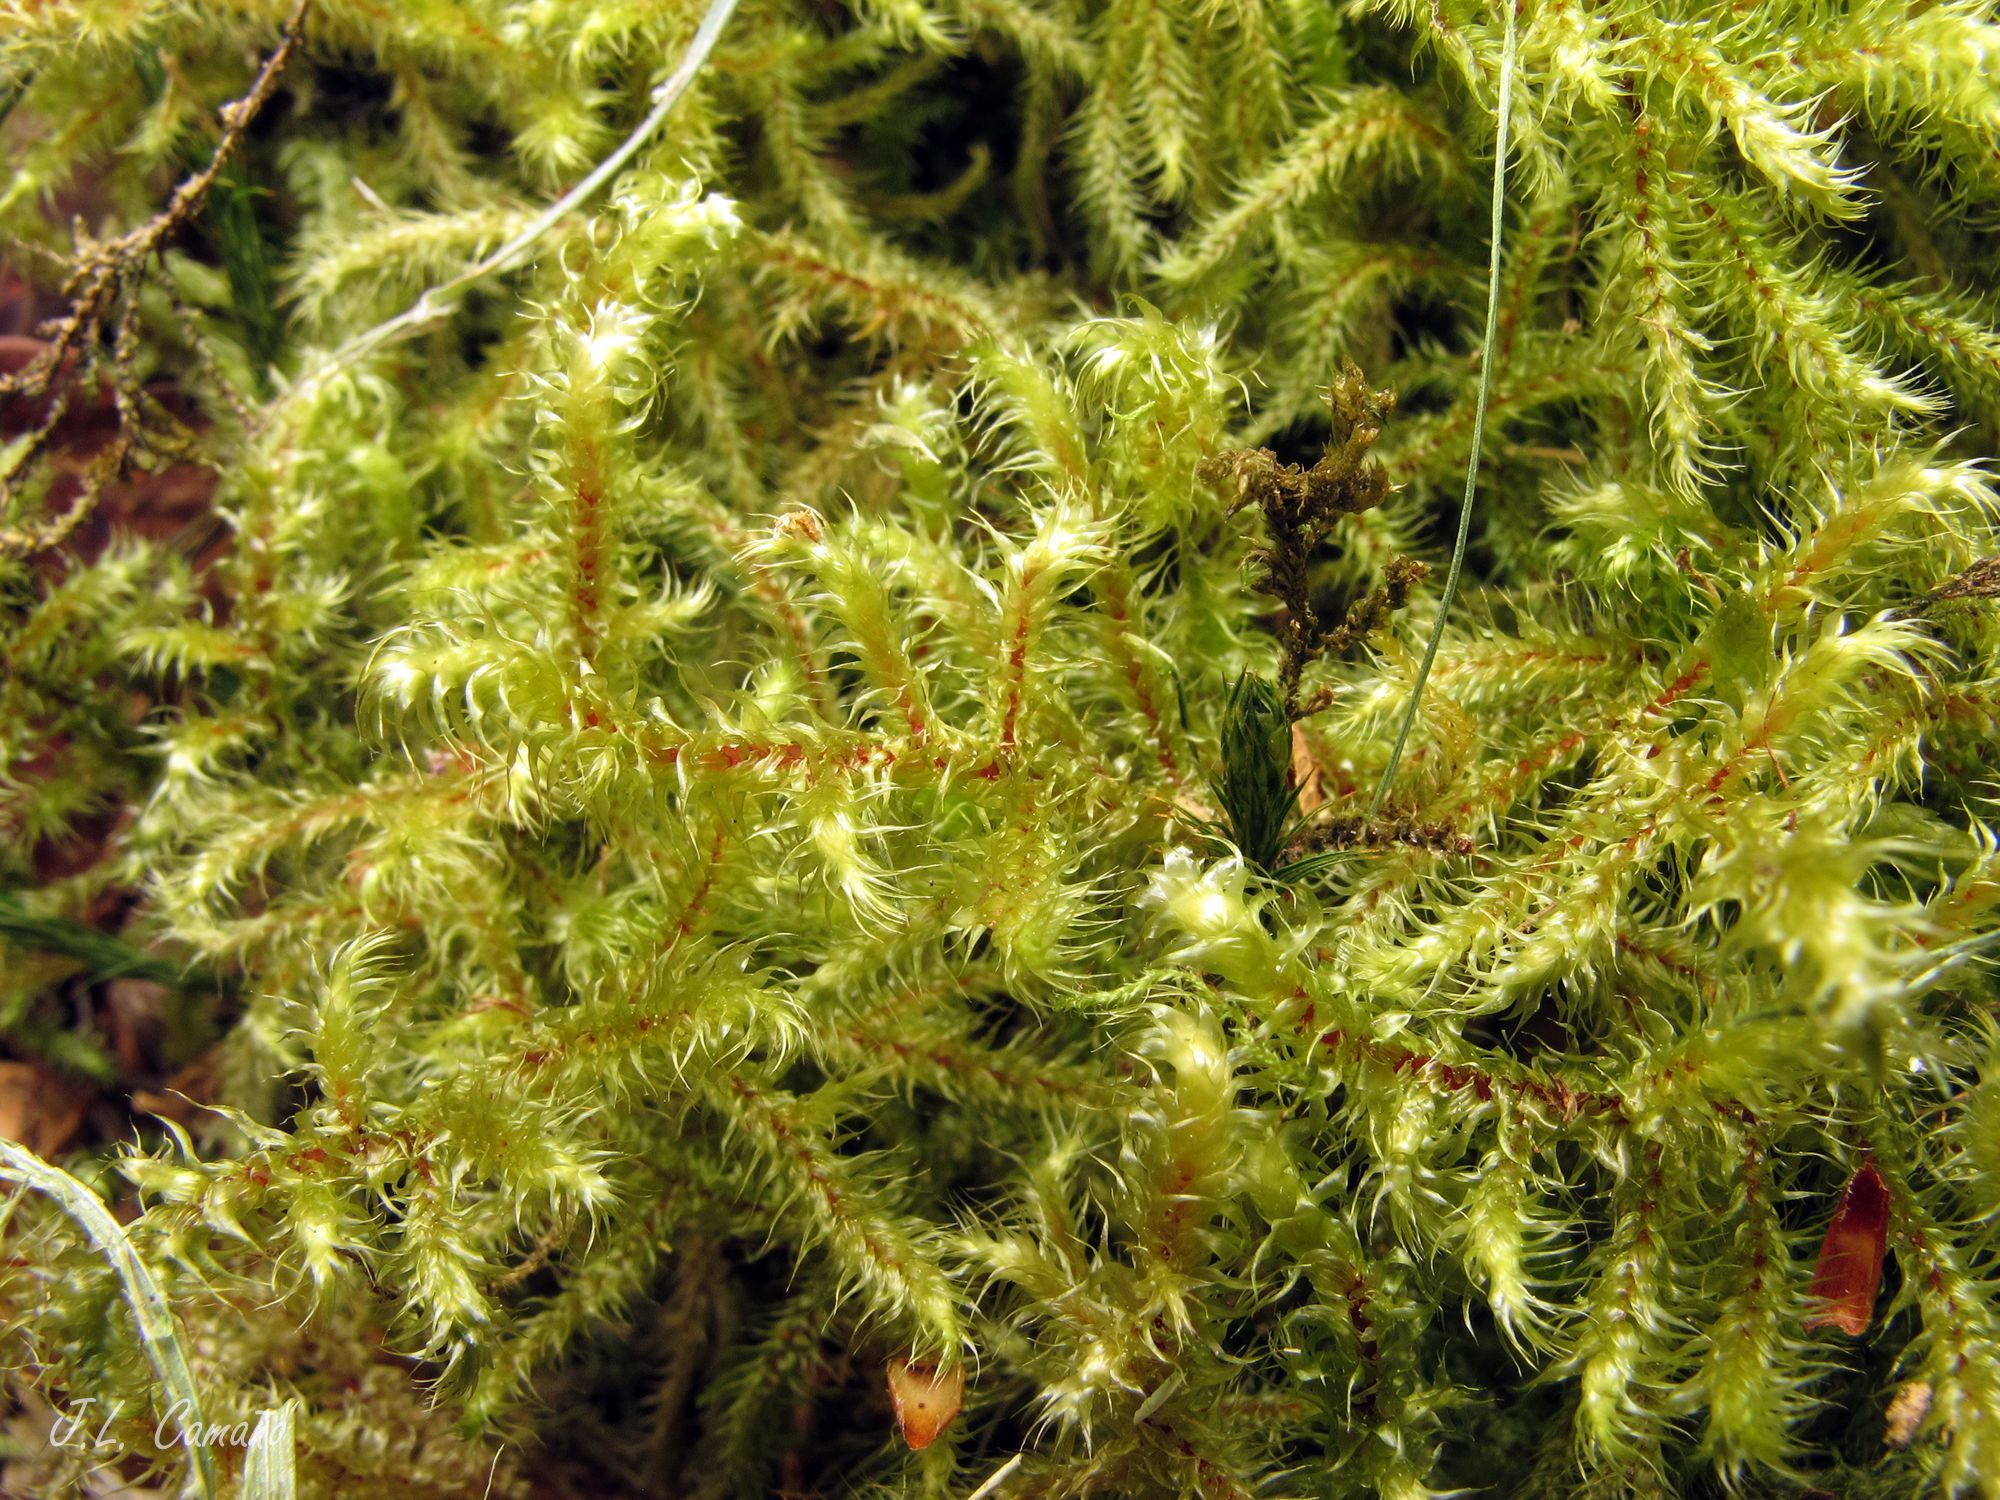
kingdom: Plantae
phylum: Bryophyta
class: Bryopsida
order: Hypnales
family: Hylocomiaceae
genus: Rhytidiadelphus
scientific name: Rhytidiadelphus loreus
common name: Lanky moss
